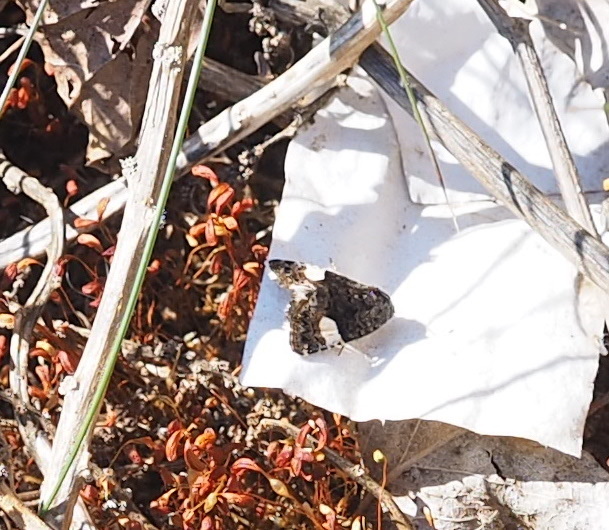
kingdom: Animalia
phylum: Arthropoda
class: Insecta
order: Lepidoptera
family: Erebidae
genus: Tyta
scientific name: Tyta luctuosa
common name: Four-spotted
